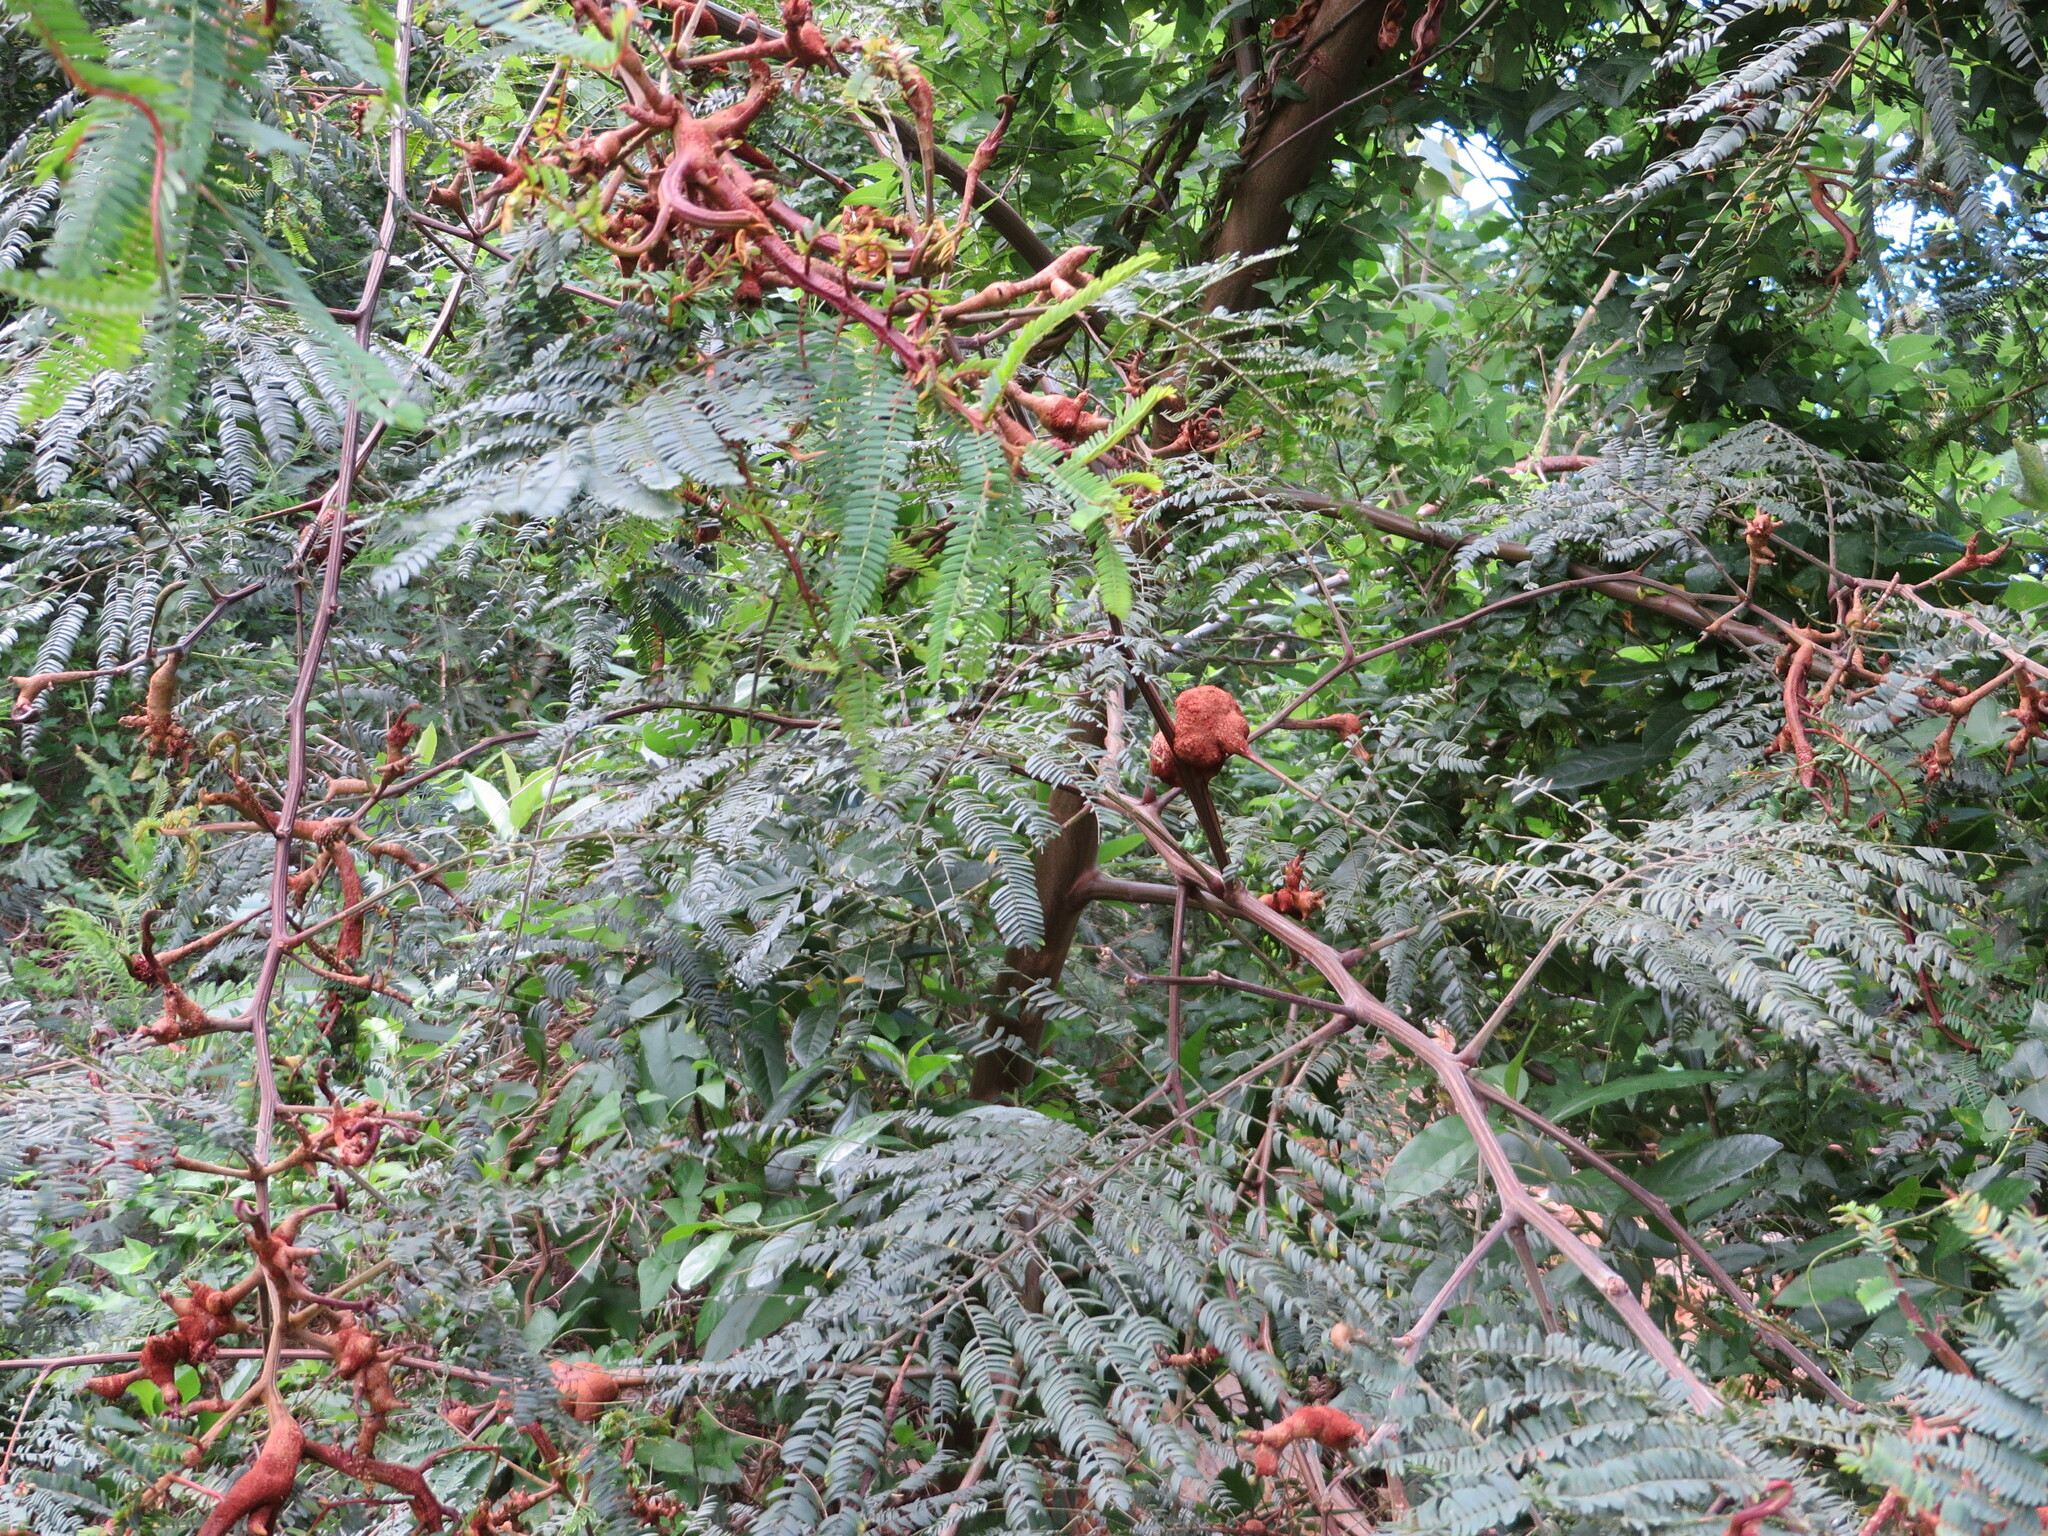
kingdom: Fungi
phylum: Basidiomycota
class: Pucciniomycetes
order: Pucciniales
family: Uromycladiaceae
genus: Uromycladium
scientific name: Uromycladium woodii
